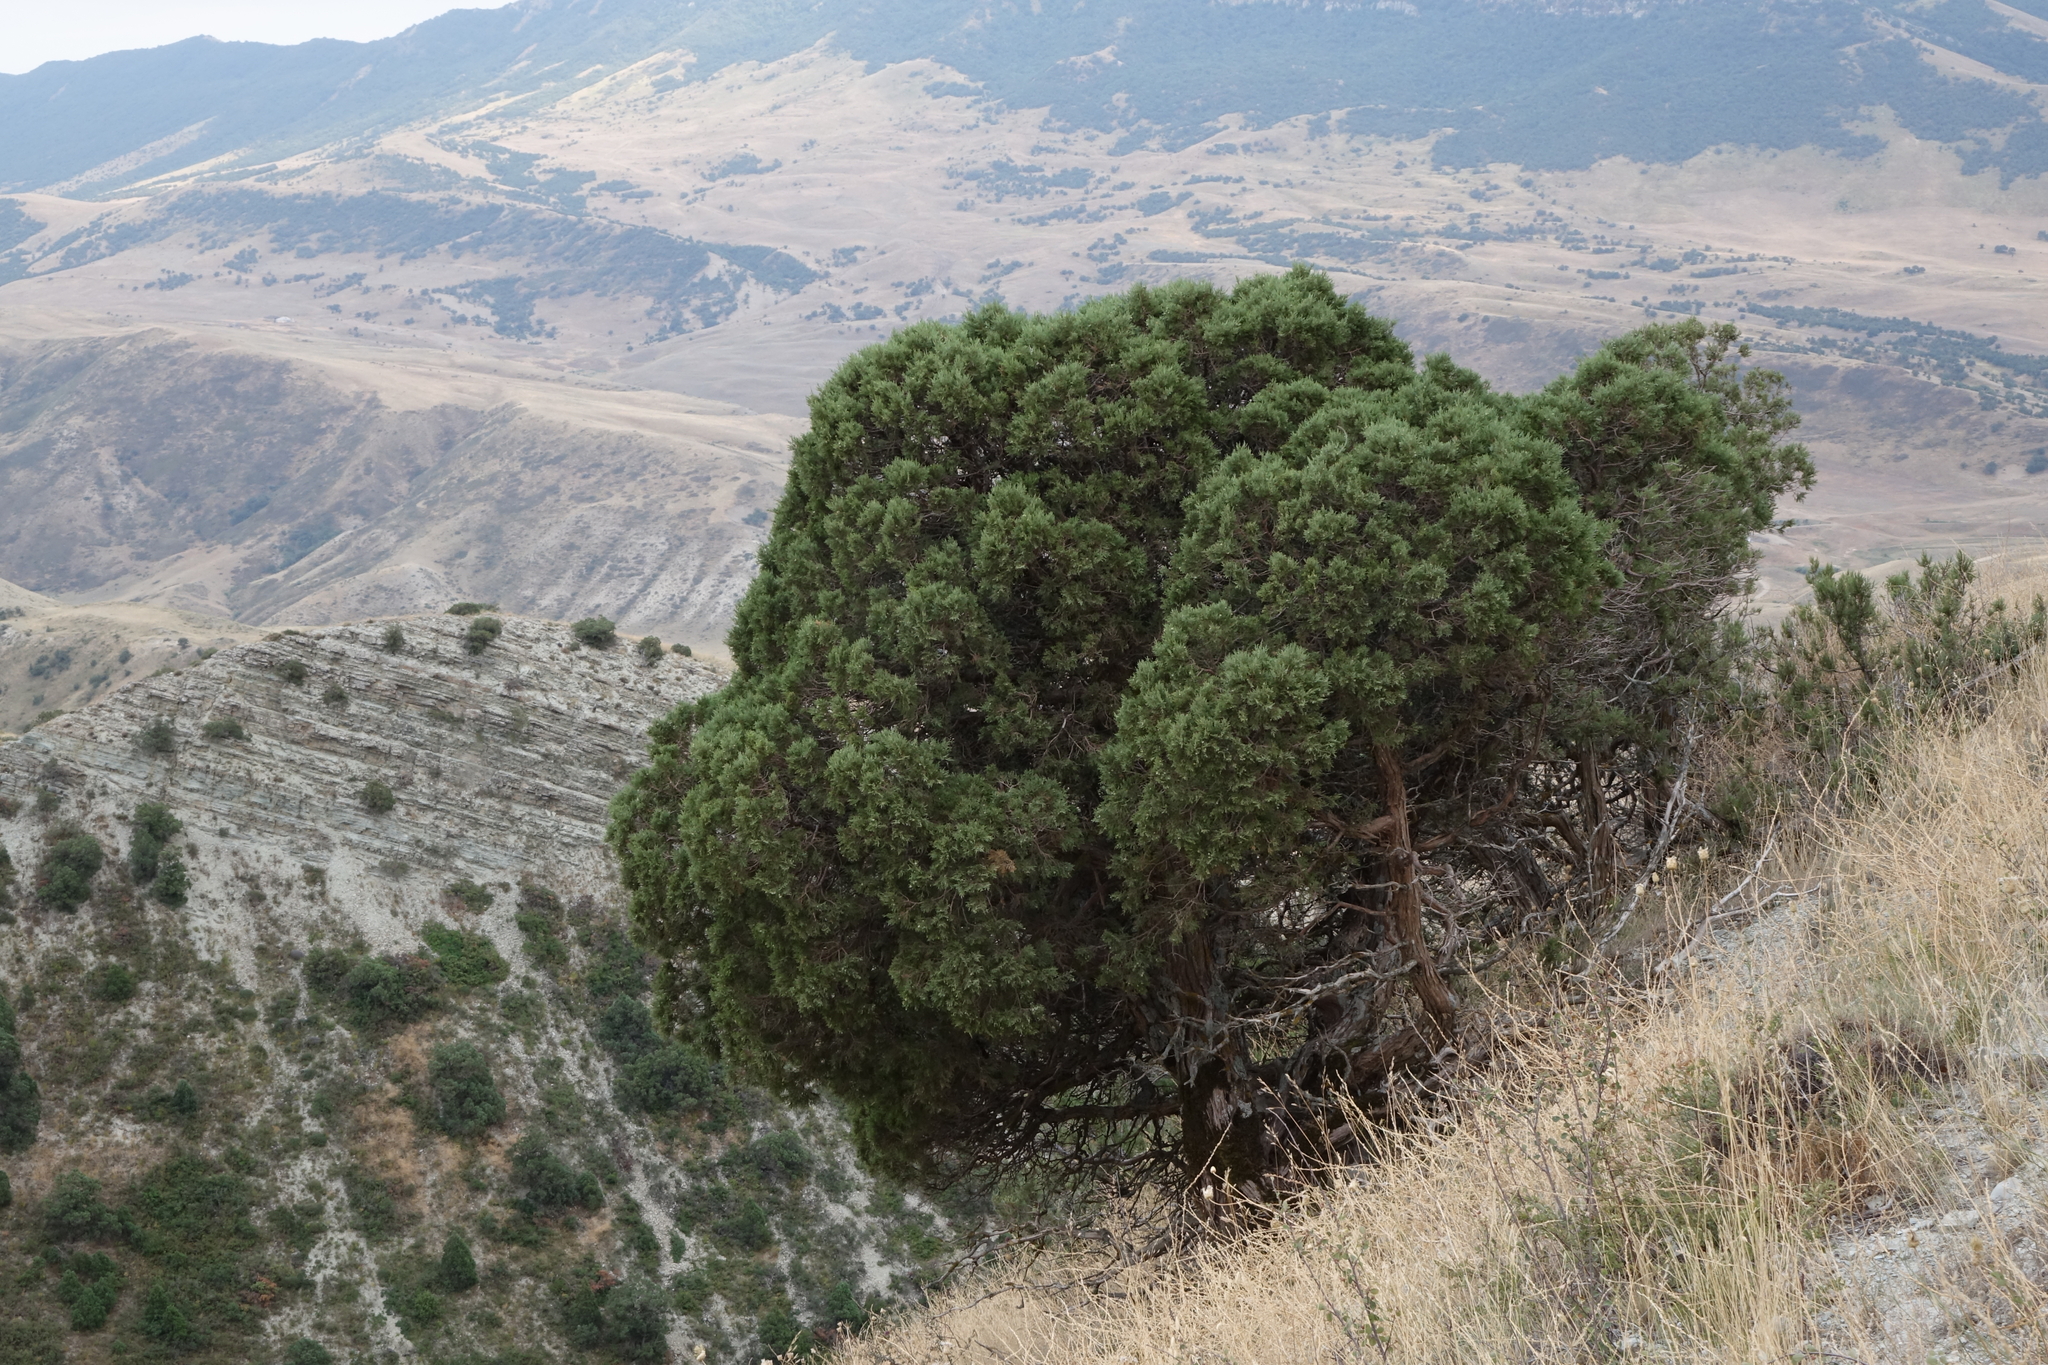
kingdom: Plantae
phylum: Tracheophyta
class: Pinopsida
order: Pinales
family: Cupressaceae
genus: Juniperus
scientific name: Juniperus excelsa
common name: Crimean juniper
